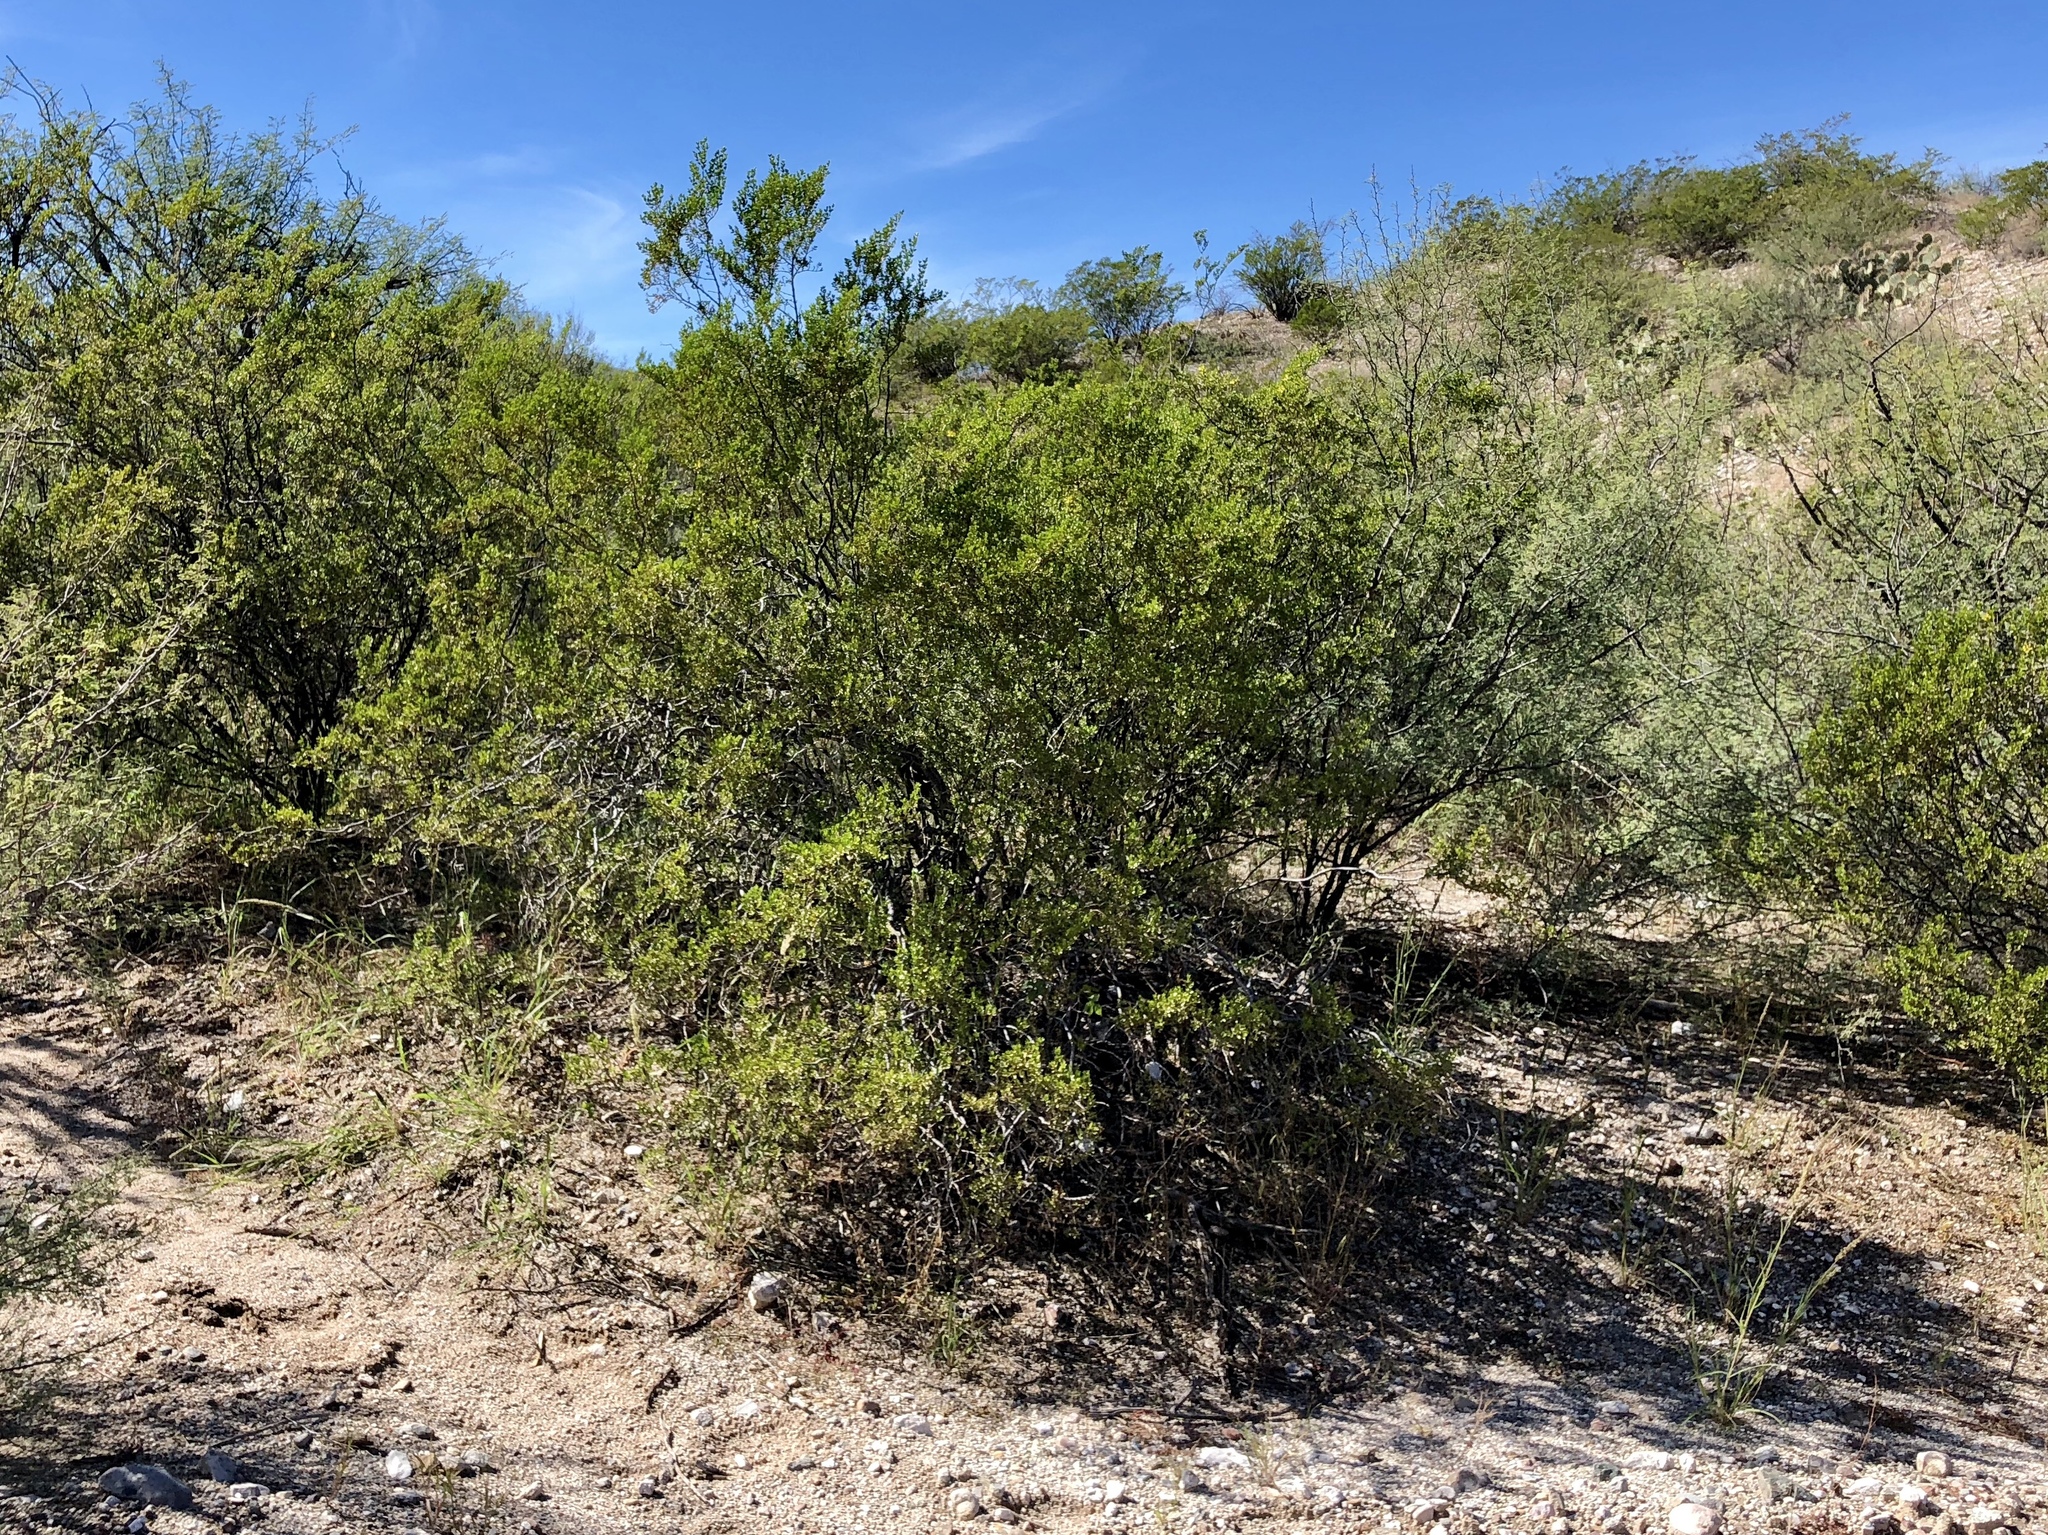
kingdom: Plantae
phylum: Tracheophyta
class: Magnoliopsida
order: Zygophyllales
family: Zygophyllaceae
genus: Larrea
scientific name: Larrea tridentata
